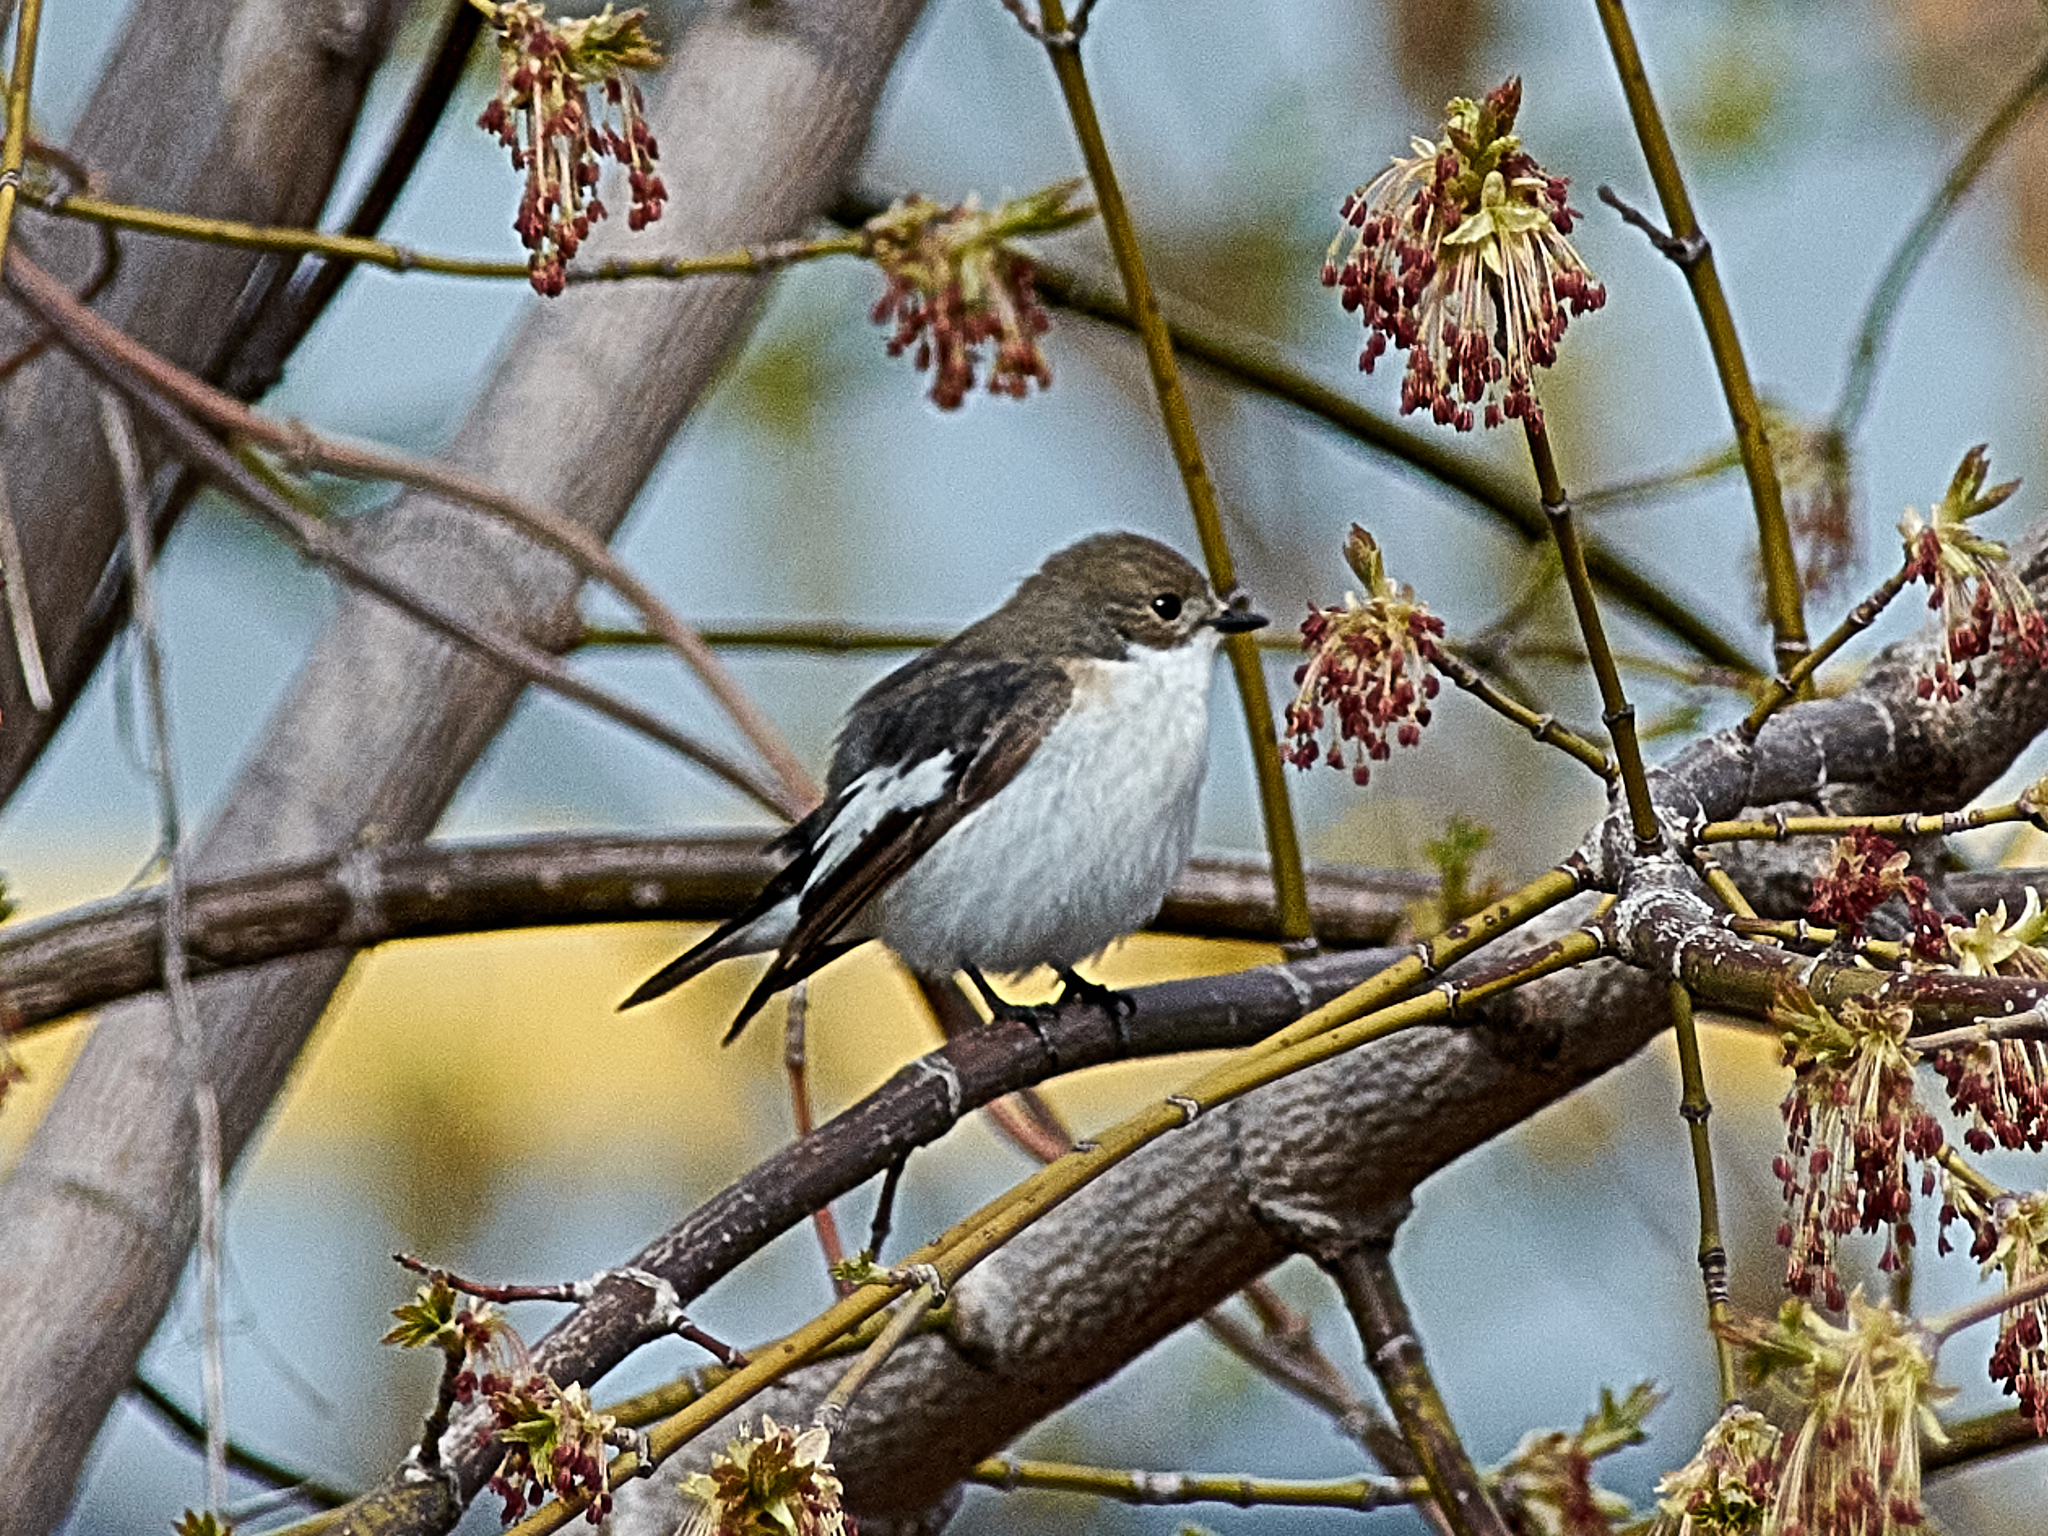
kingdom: Animalia
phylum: Chordata
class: Aves
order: Passeriformes
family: Muscicapidae
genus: Ficedula
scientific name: Ficedula hypoleuca
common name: European pied flycatcher
